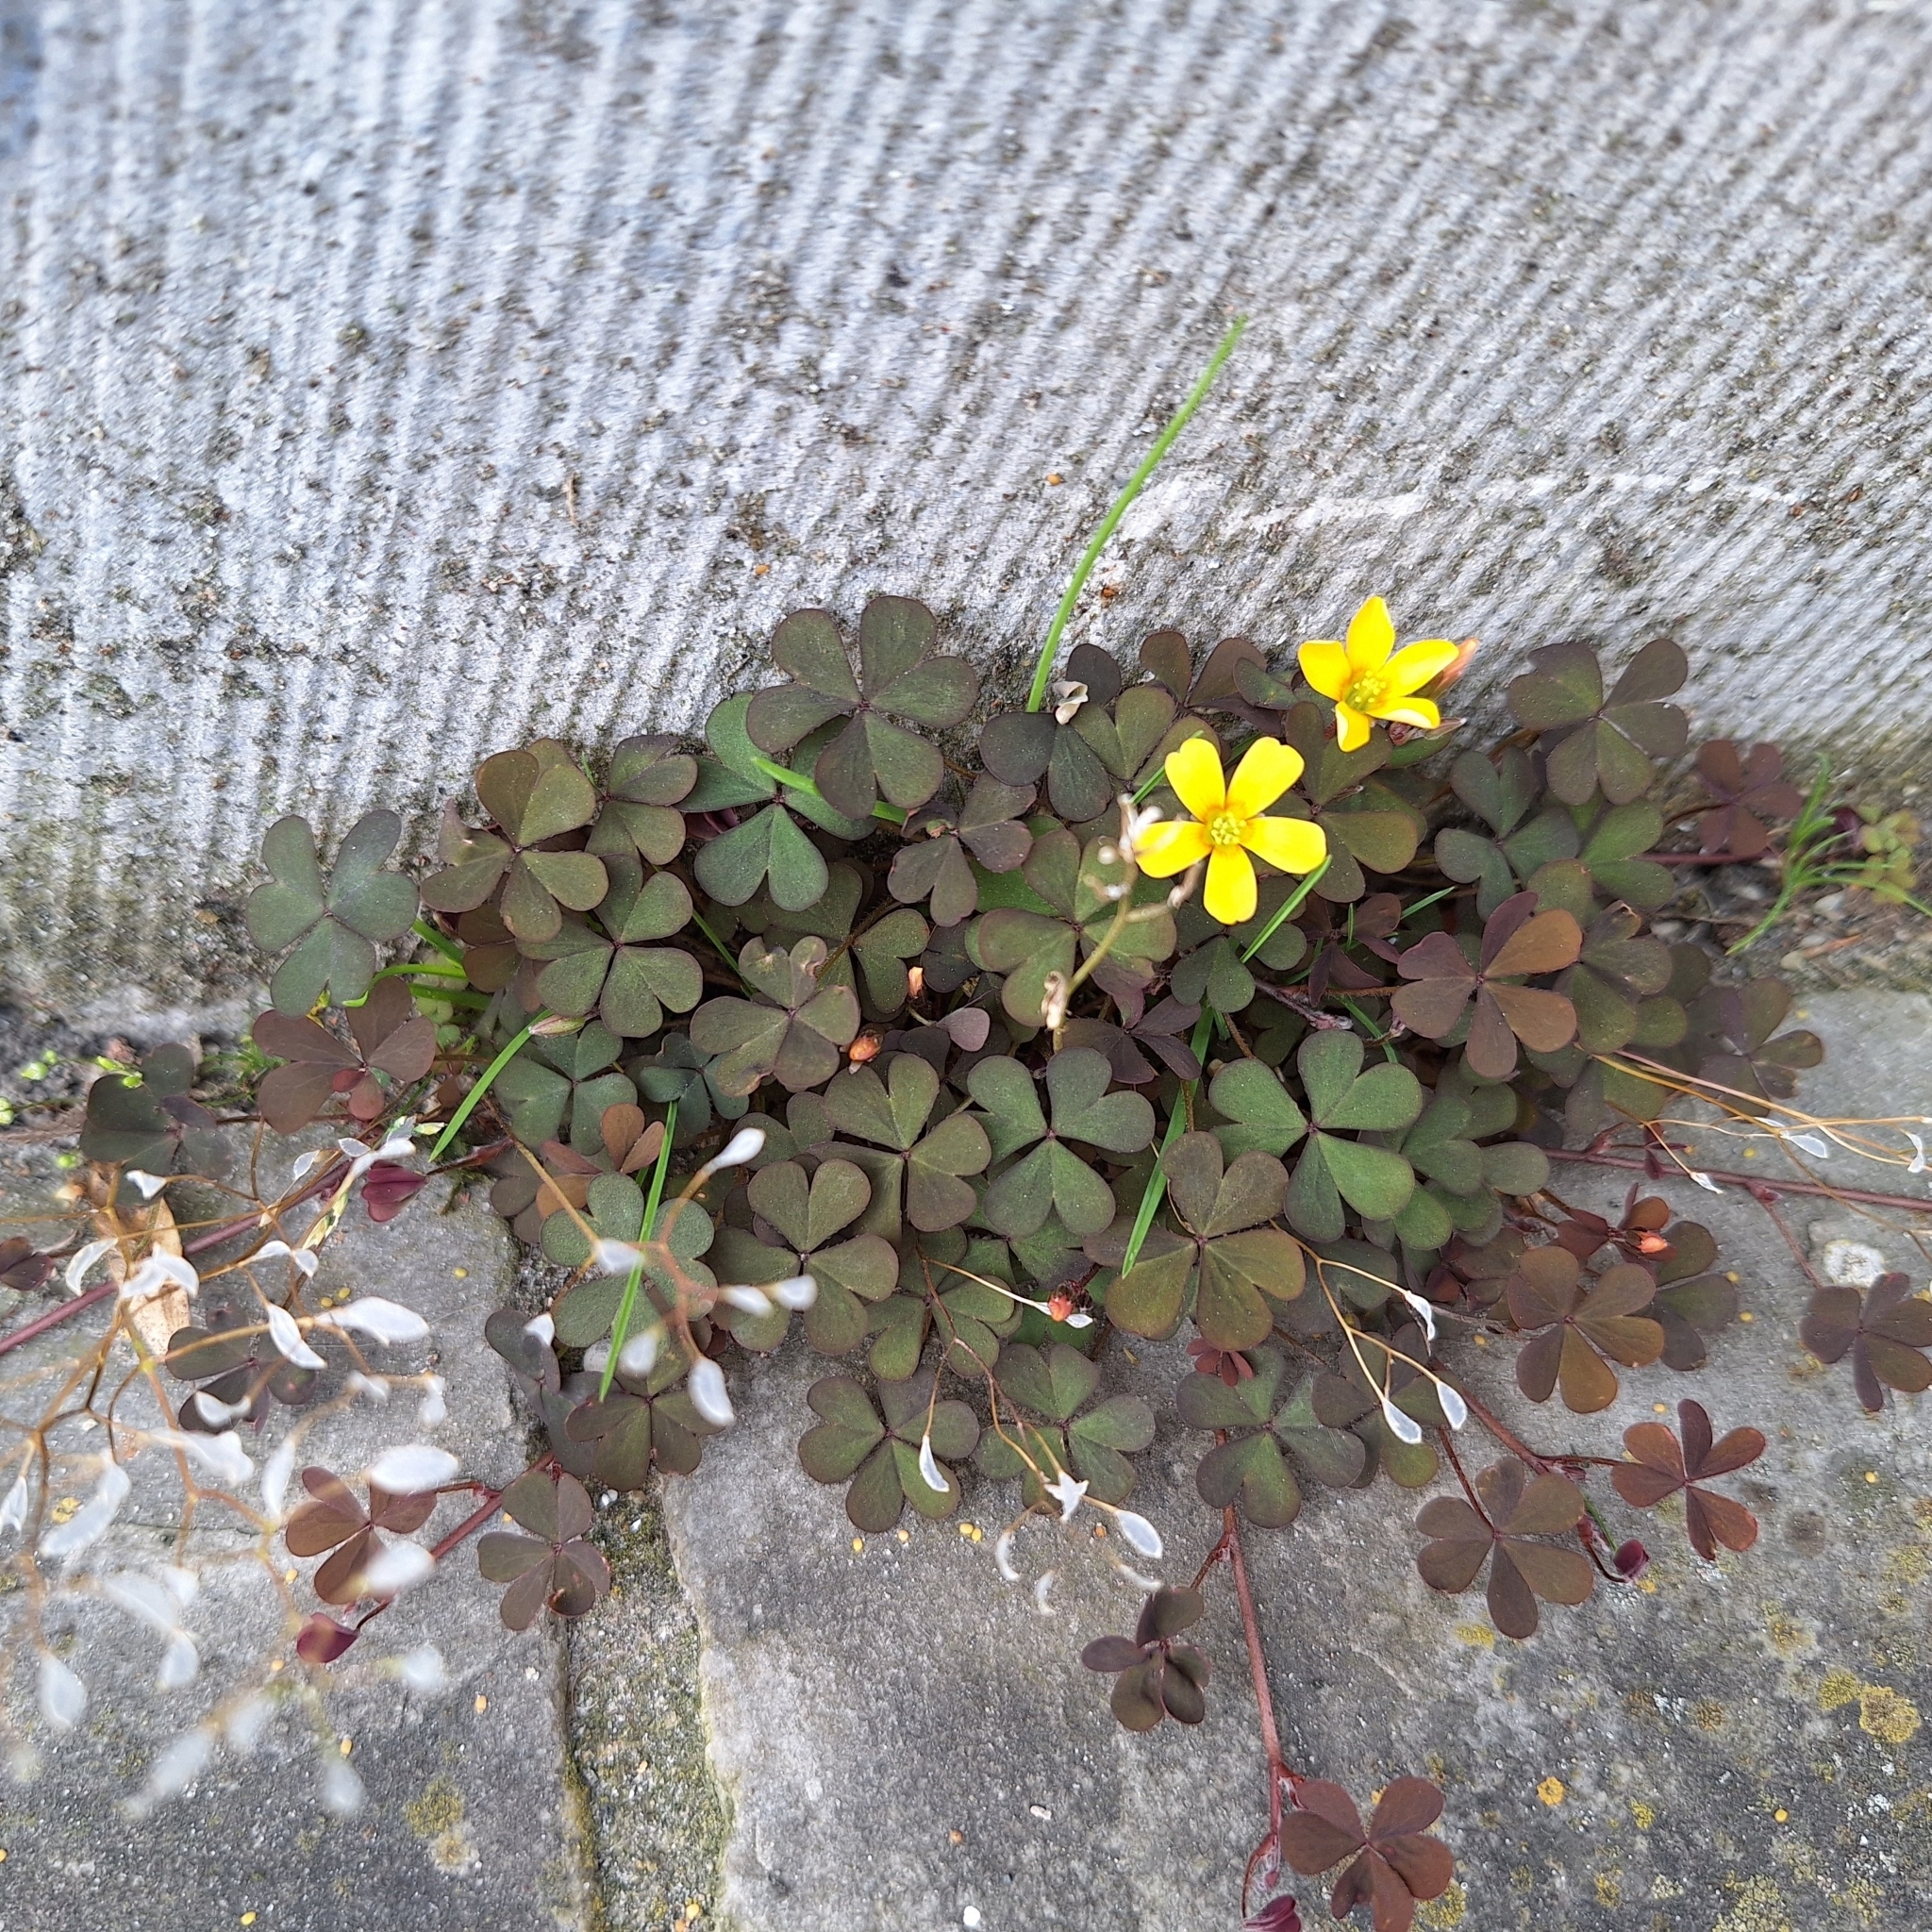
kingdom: Plantae
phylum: Tracheophyta
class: Magnoliopsida
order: Oxalidales
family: Oxalidaceae
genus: Oxalis
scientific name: Oxalis corniculata
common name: Procumbent yellow-sorrel
